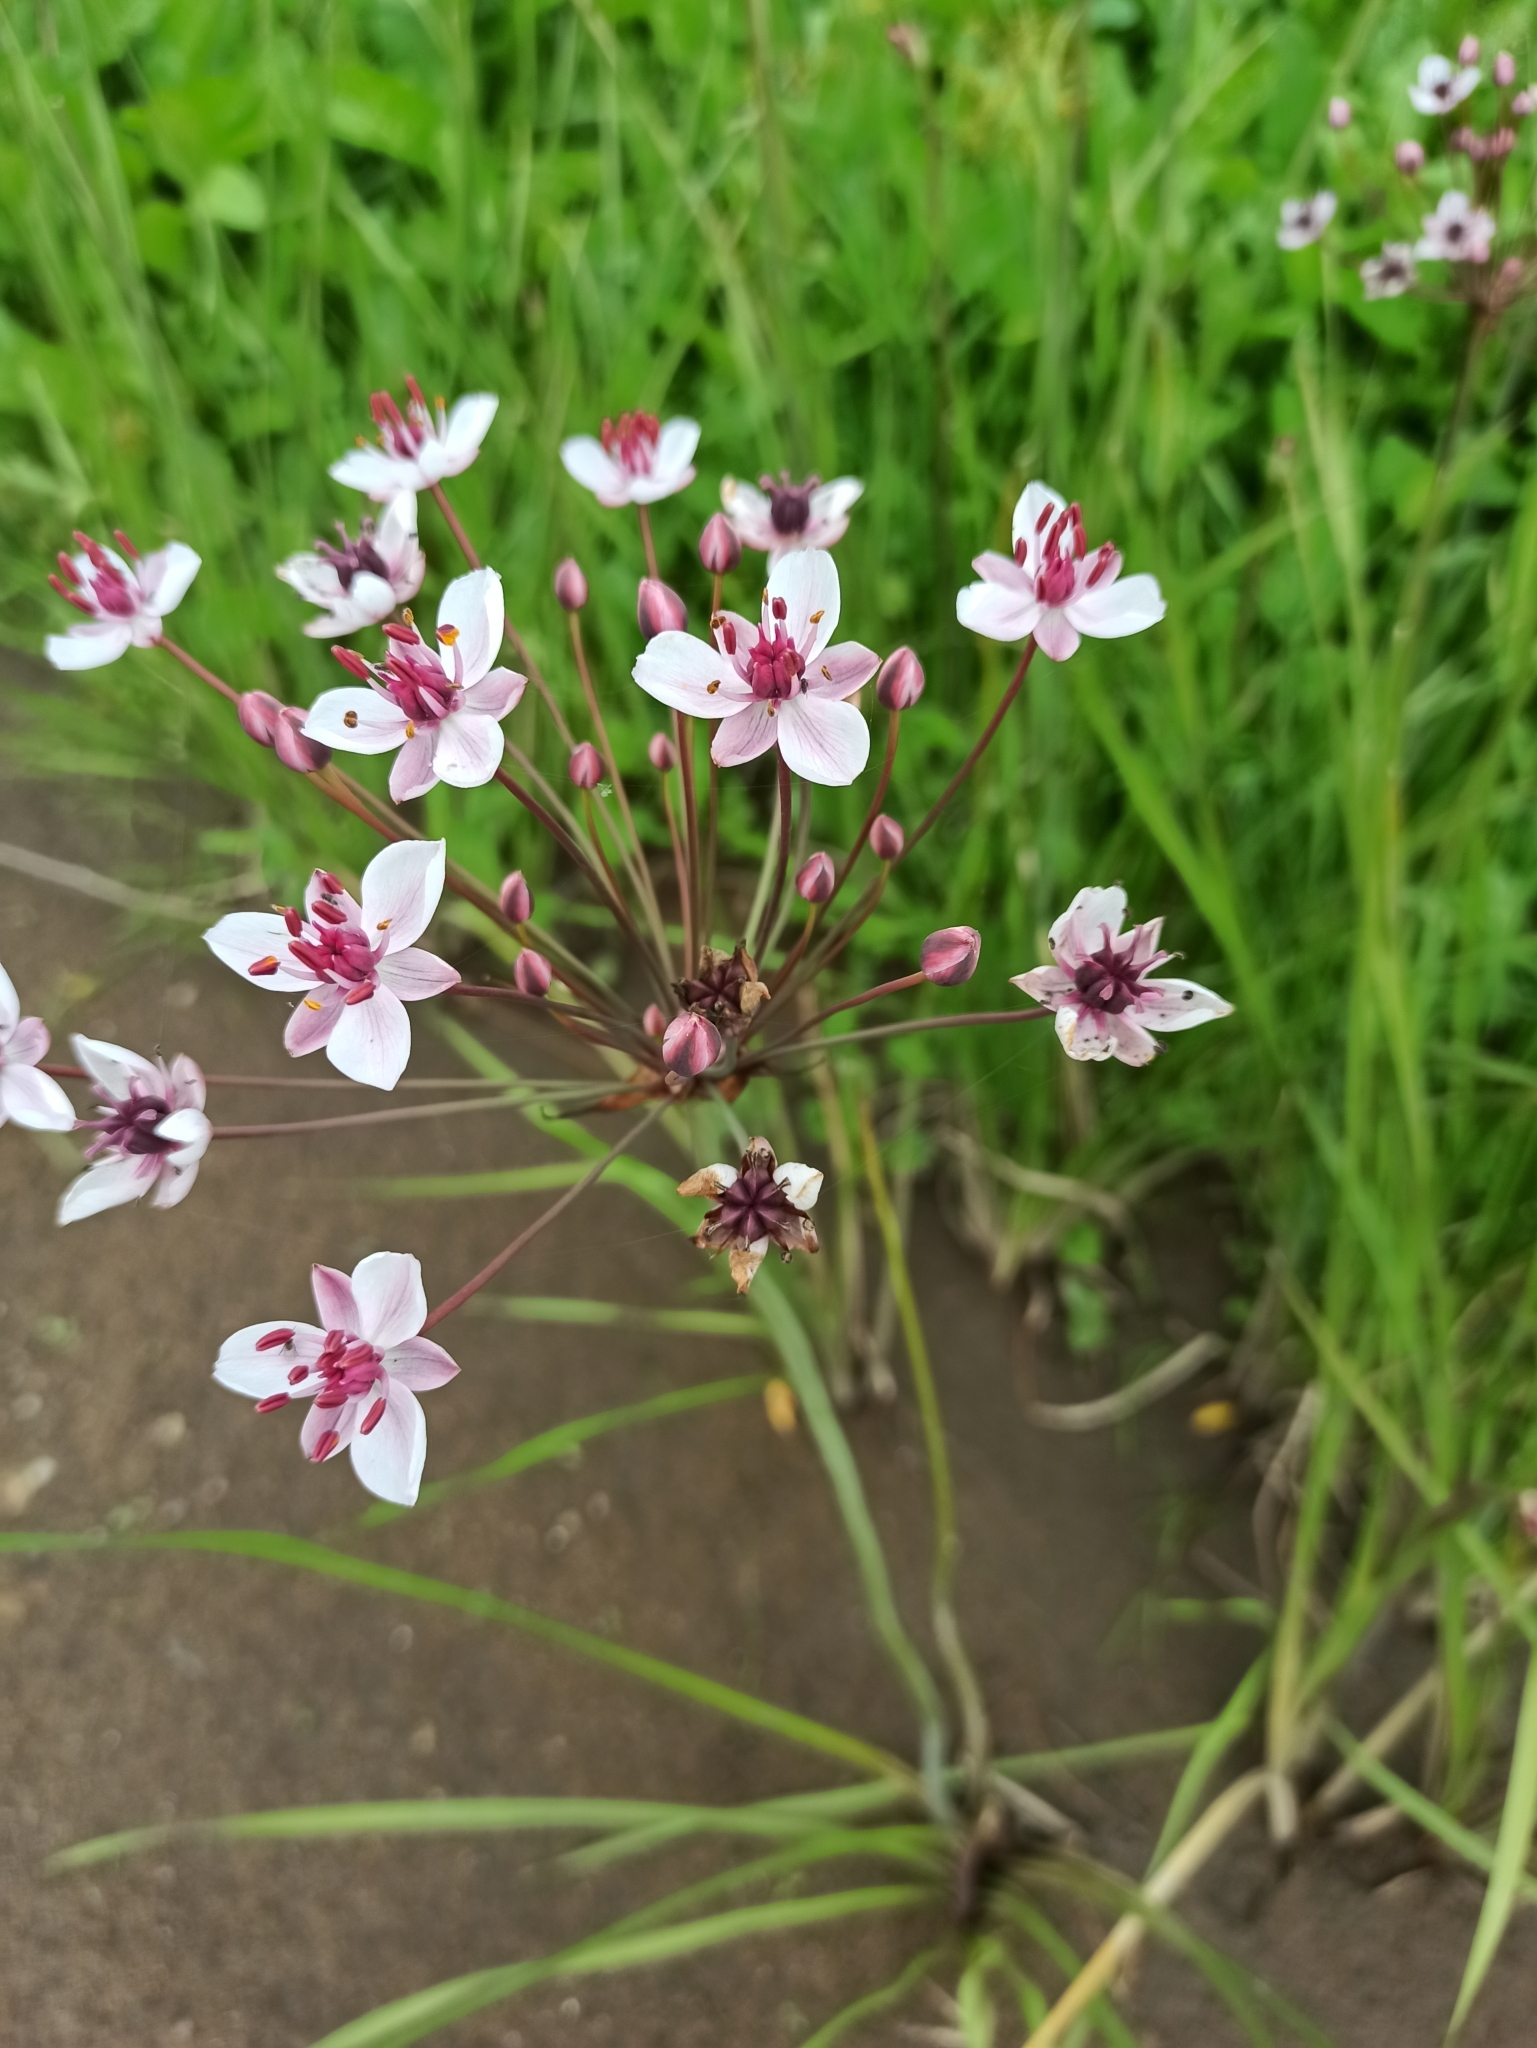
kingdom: Plantae
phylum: Tracheophyta
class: Liliopsida
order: Alismatales
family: Butomaceae
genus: Butomus
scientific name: Butomus umbellatus
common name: Flowering-rush
